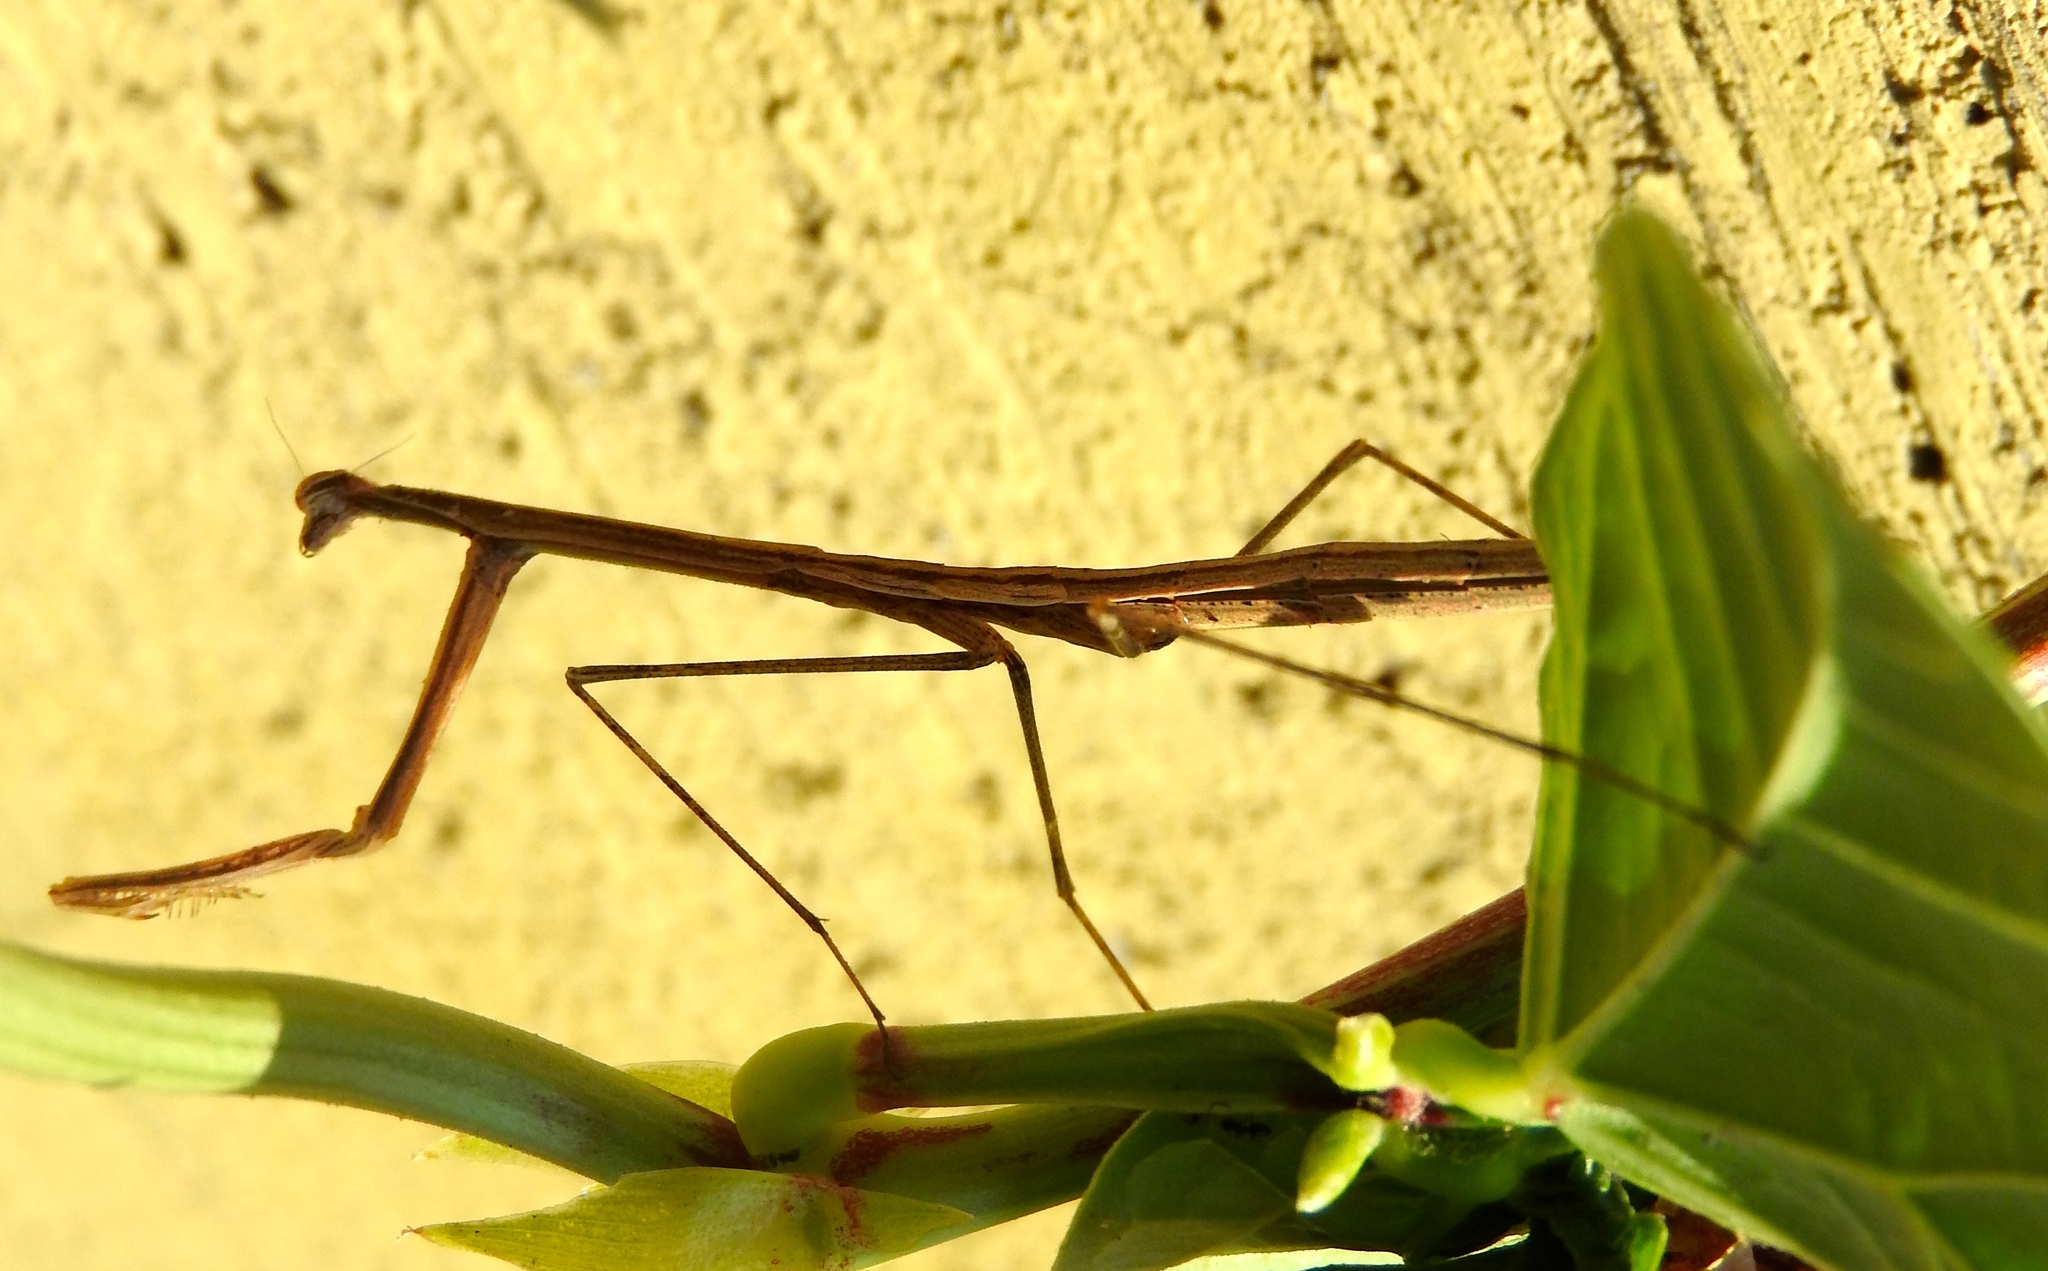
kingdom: Animalia
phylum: Arthropoda
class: Insecta
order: Mantodea
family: Thespidae
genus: Bistanta
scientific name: Bistanta mexicana
